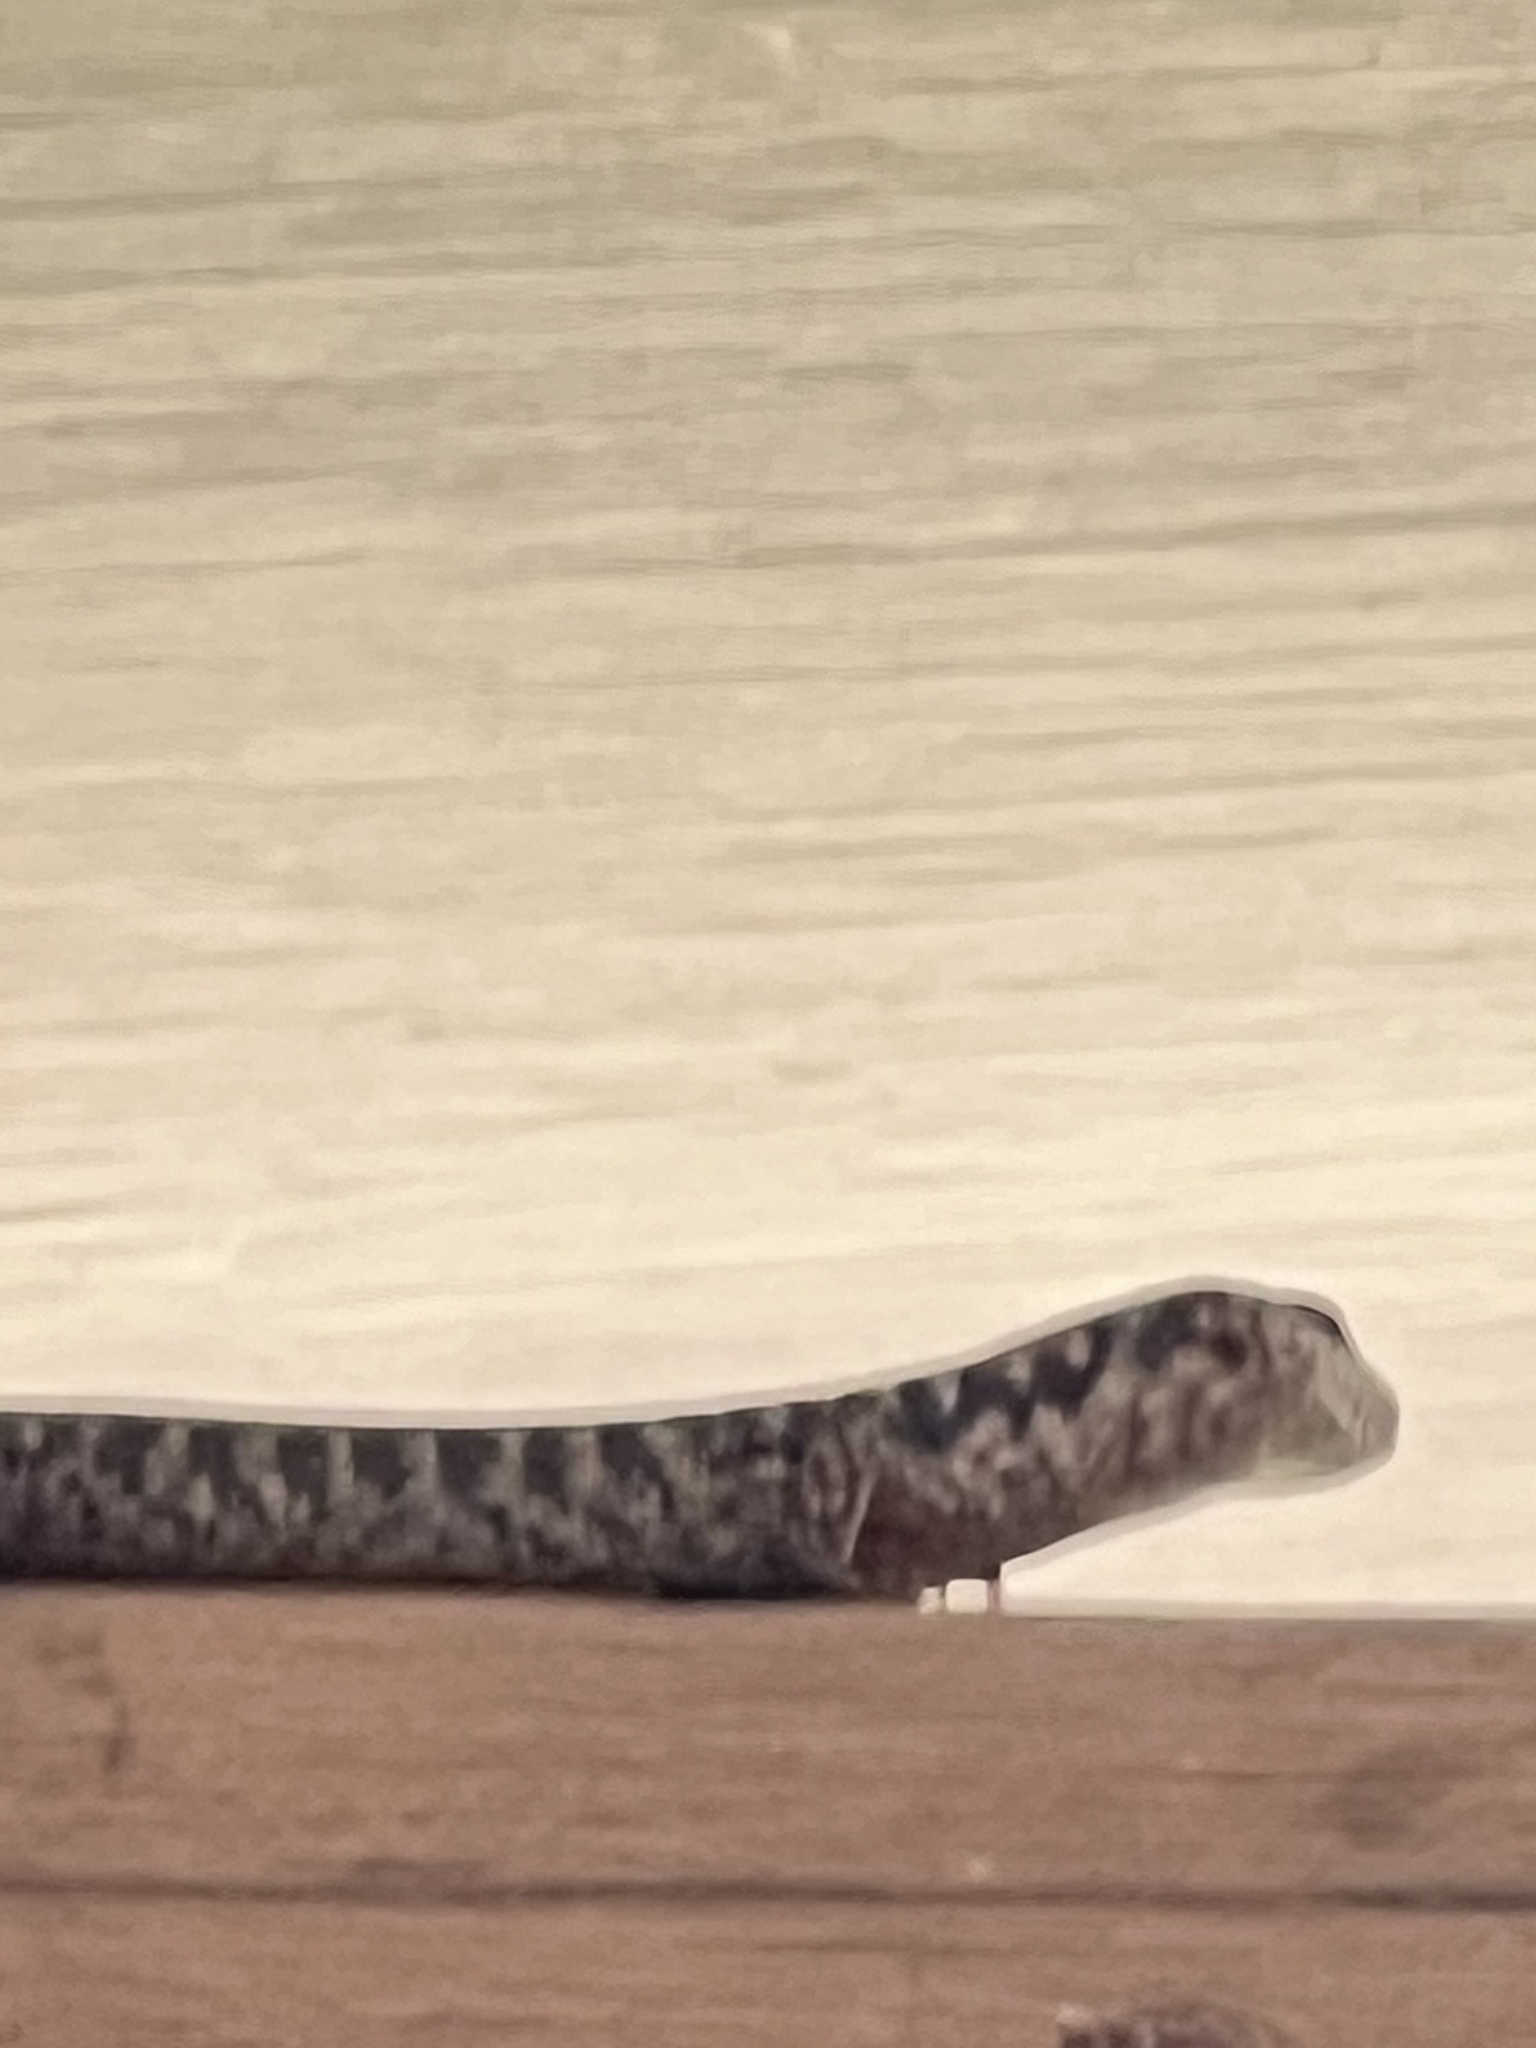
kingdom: Animalia
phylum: Chordata
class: Squamata
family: Scincidae
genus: Concinnia
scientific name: Concinnia tenuis
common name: Bar-sided forest-skink
